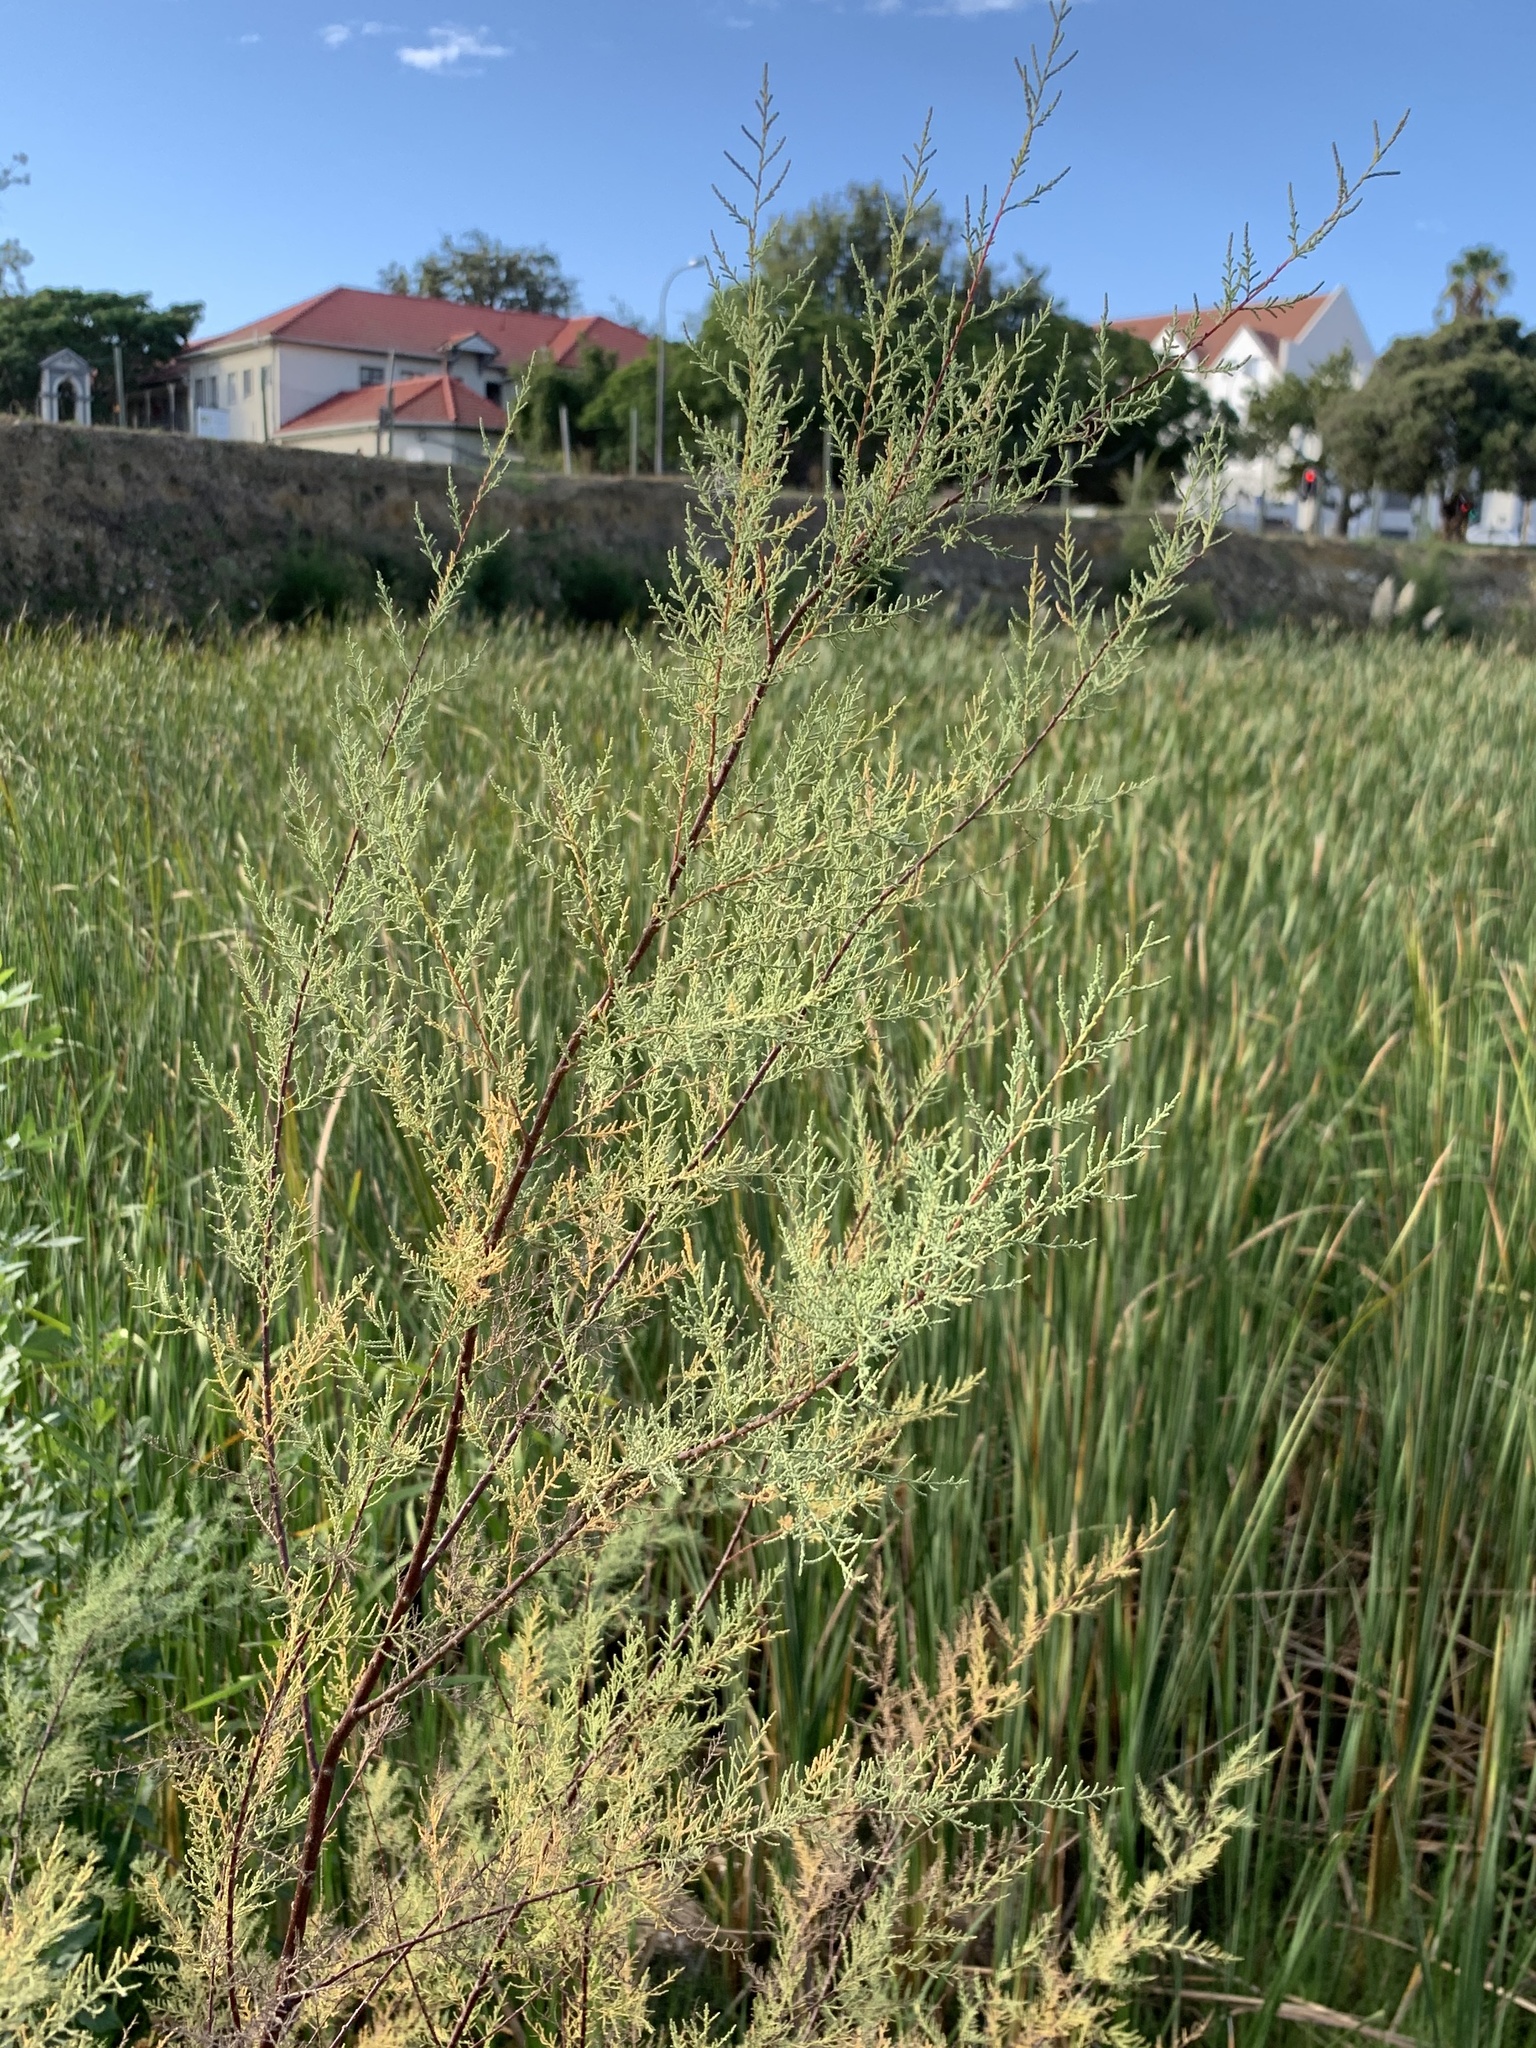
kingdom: Plantae
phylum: Tracheophyta
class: Magnoliopsida
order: Caryophyllales
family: Tamaricaceae
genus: Tamarix
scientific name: Tamarix ramosissima
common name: Pink tamarisk
